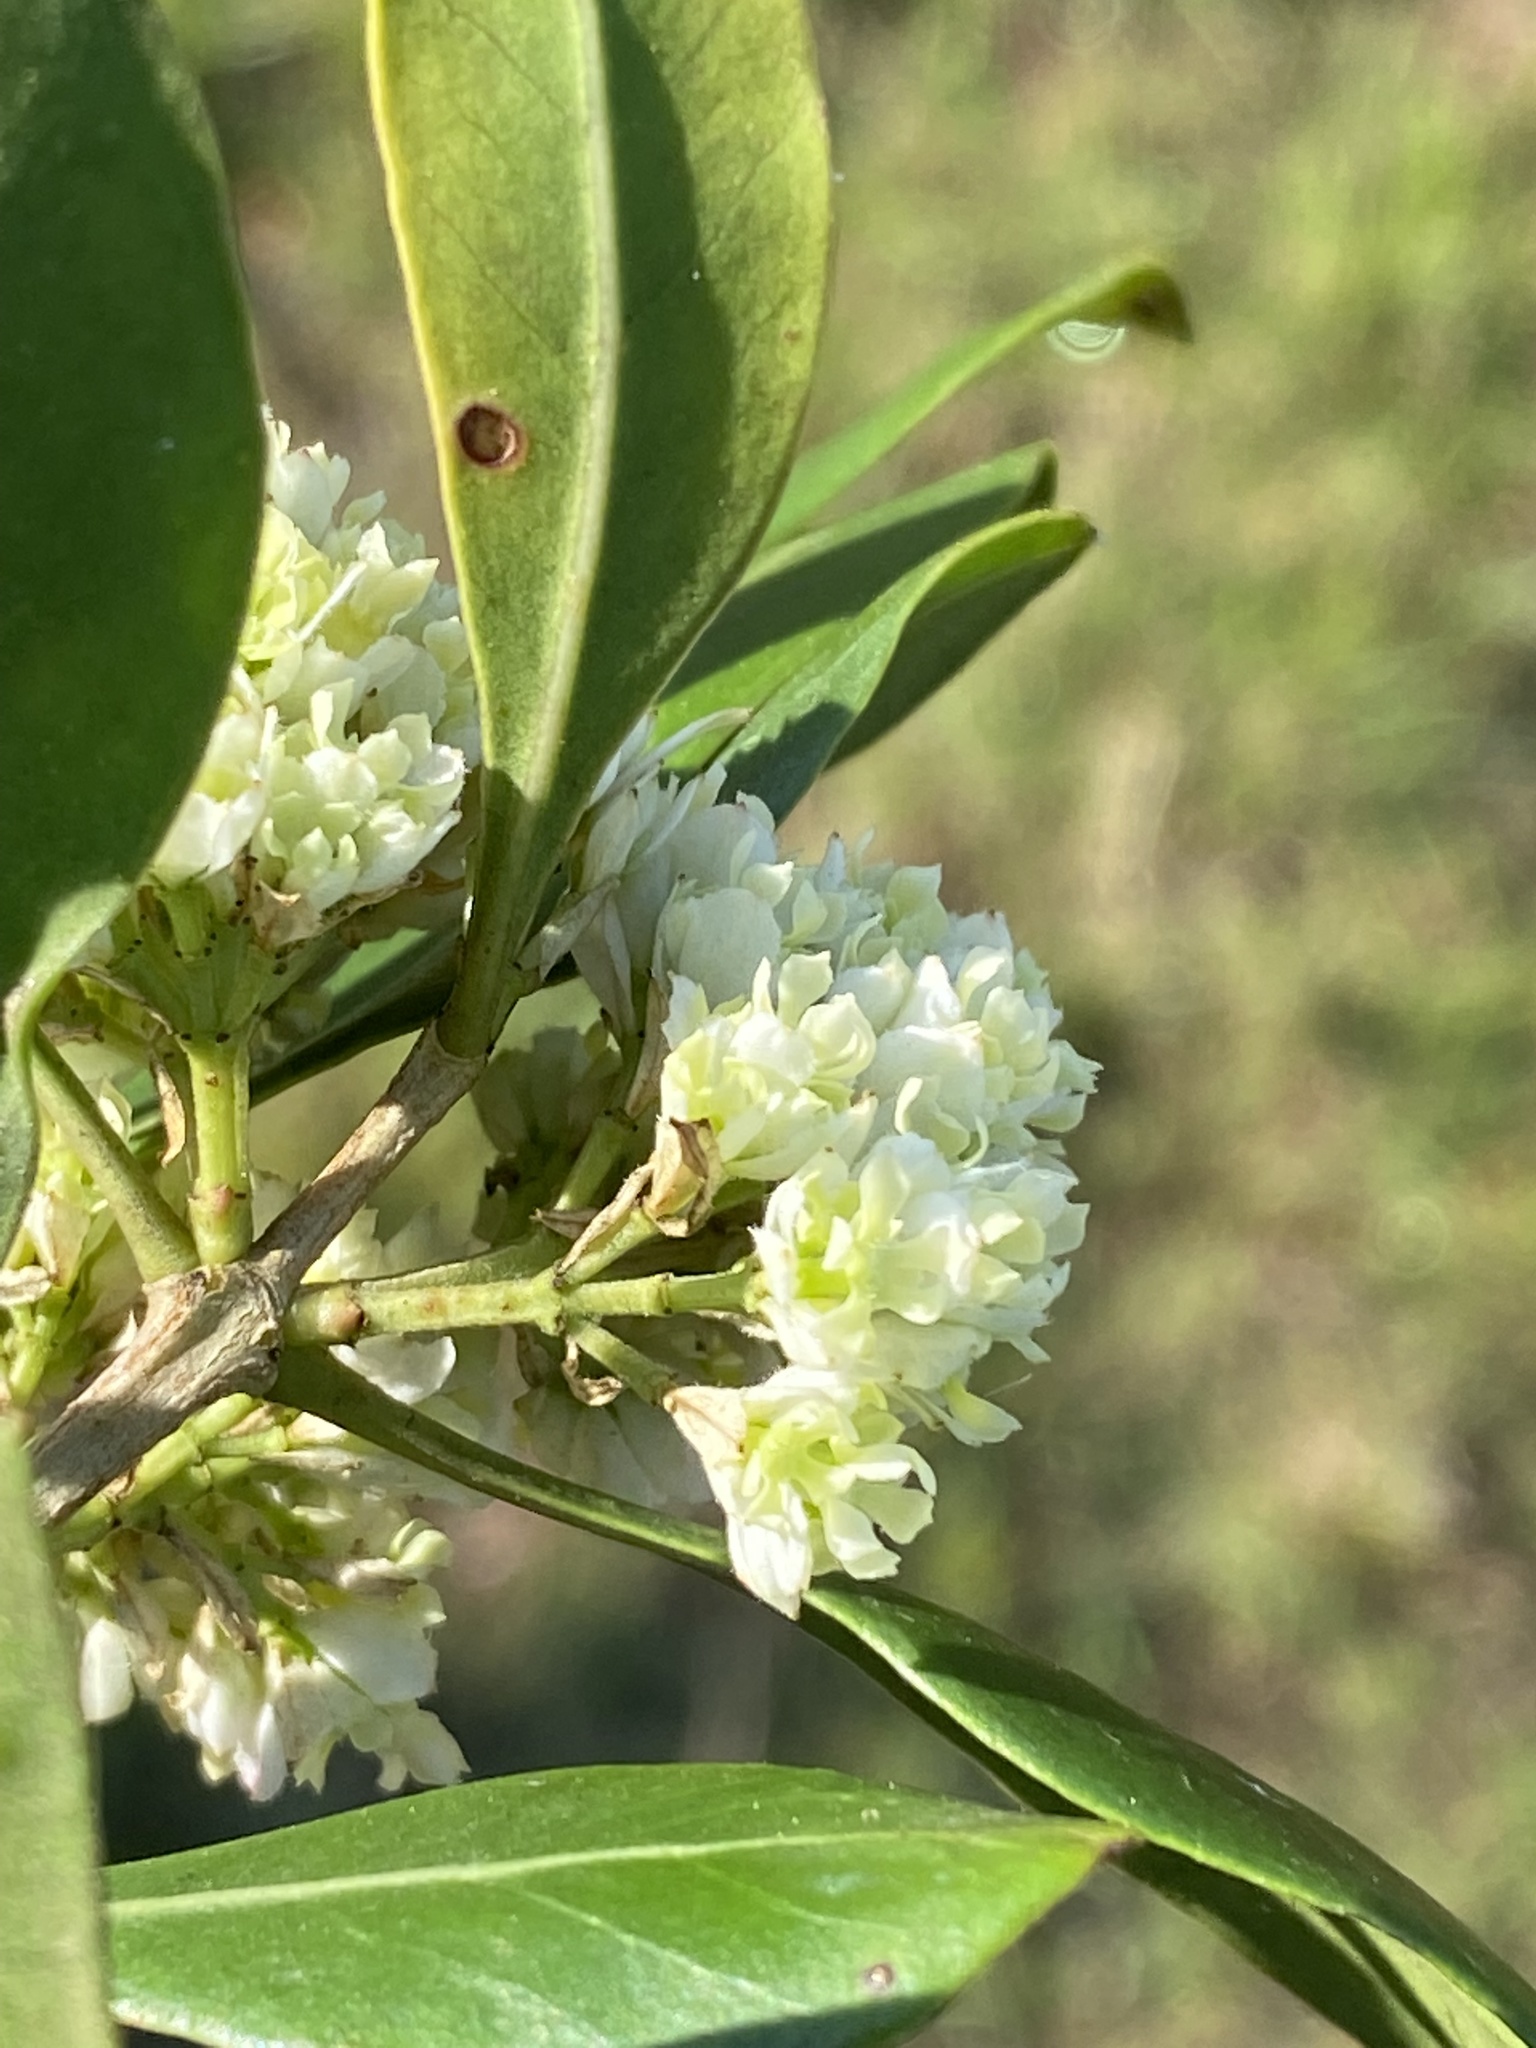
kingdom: Plantae
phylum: Tracheophyta
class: Magnoliopsida
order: Lamiales
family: Oleaceae
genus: Olea
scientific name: Olea capensis
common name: Black ironwood
